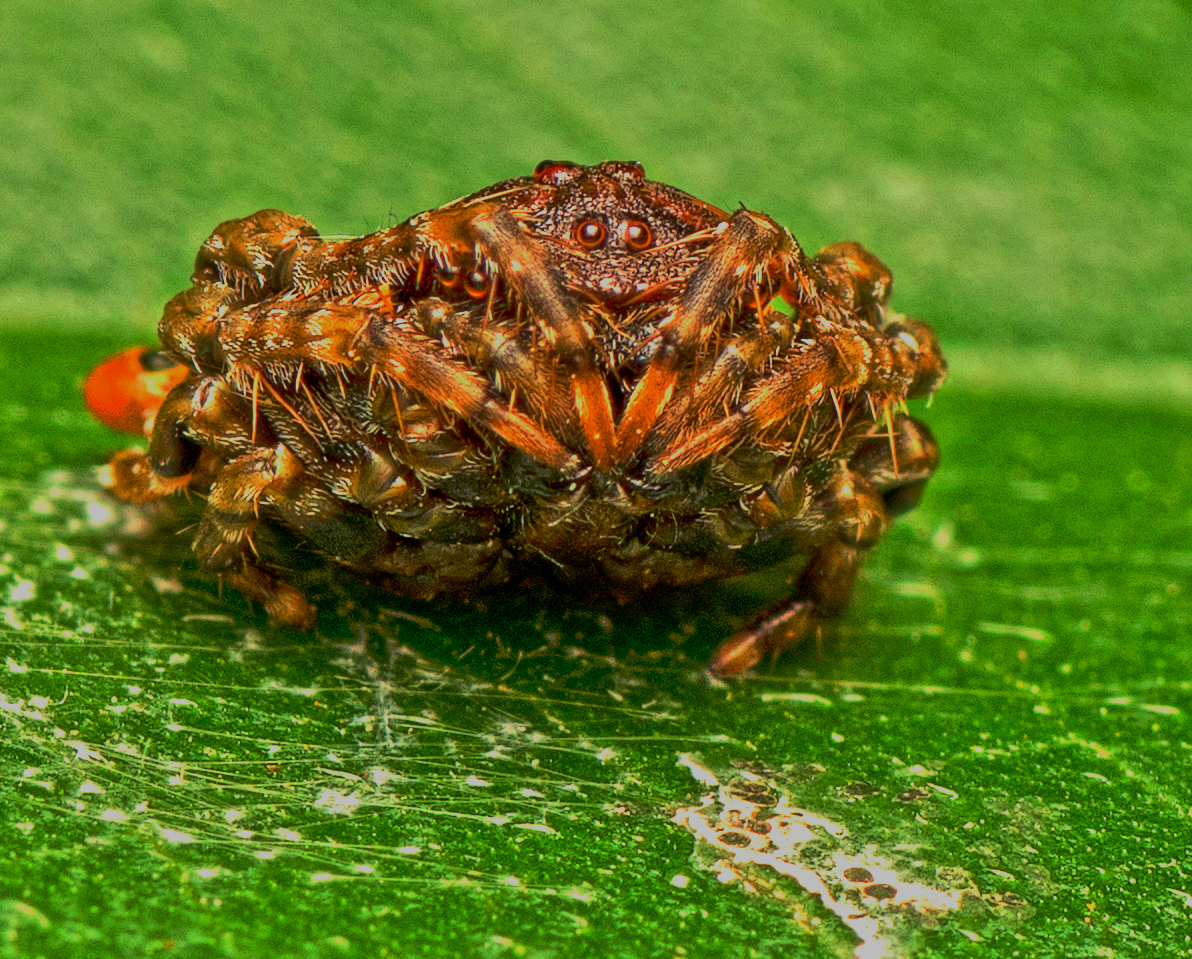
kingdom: Animalia
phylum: Arthropoda
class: Arachnida
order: Araneae
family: Arkyidae
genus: Arkys
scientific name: Arkys curtulus
